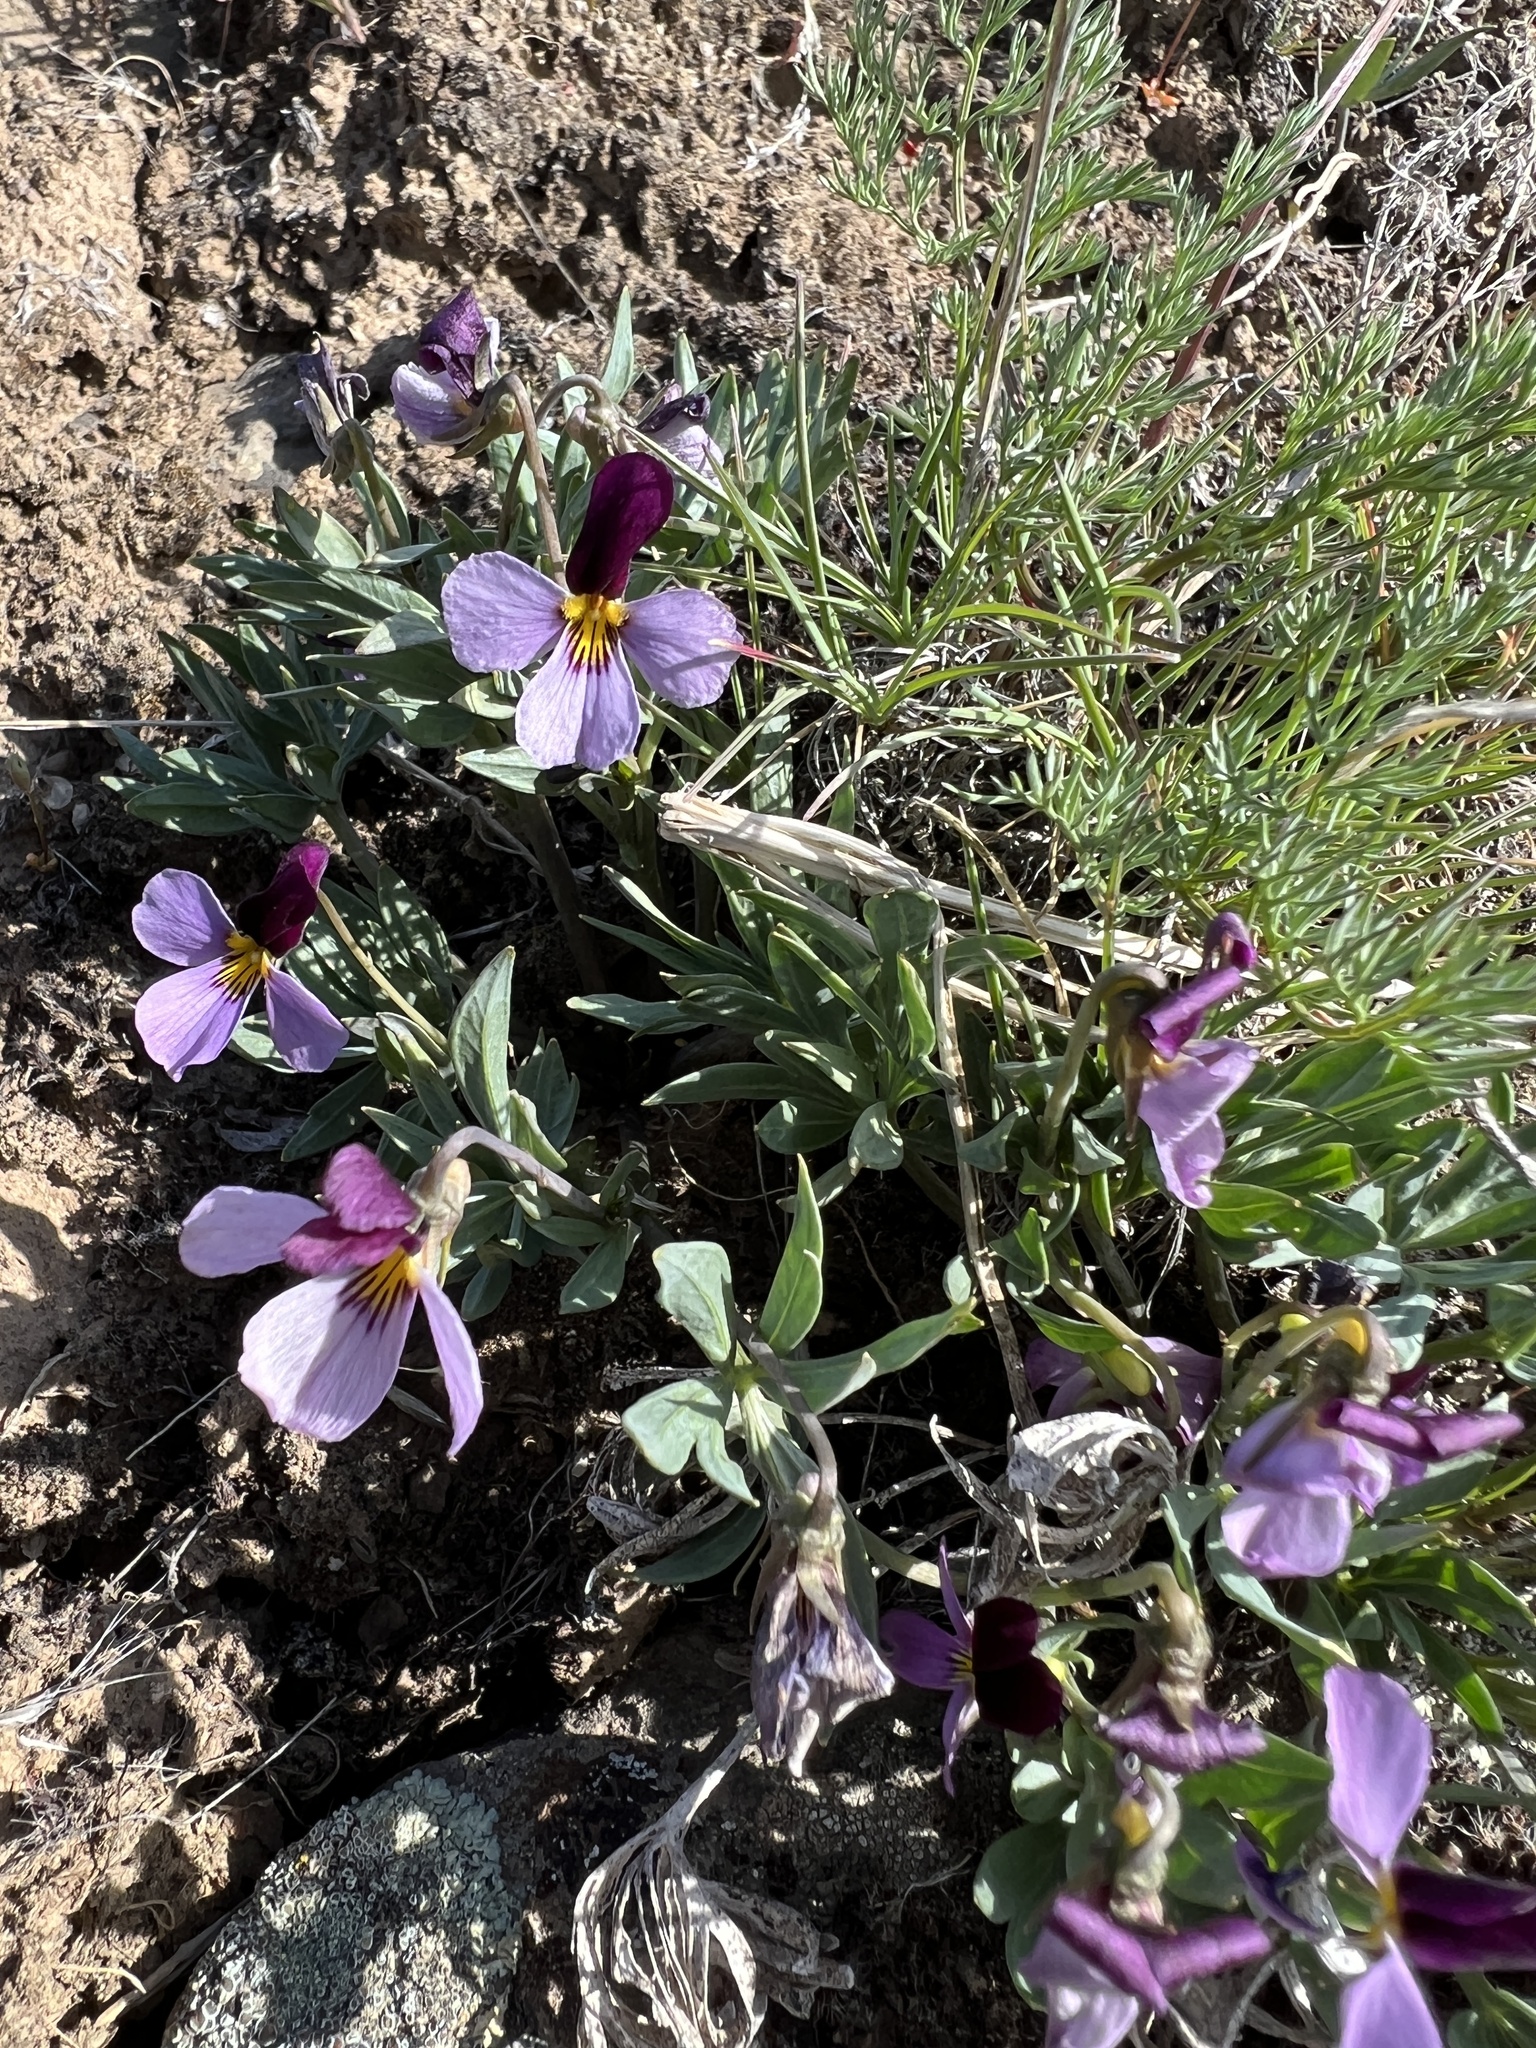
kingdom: Plantae
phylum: Tracheophyta
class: Magnoliopsida
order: Malpighiales
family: Violaceae
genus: Viola
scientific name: Viola trinervata
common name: Sagebrush violet
